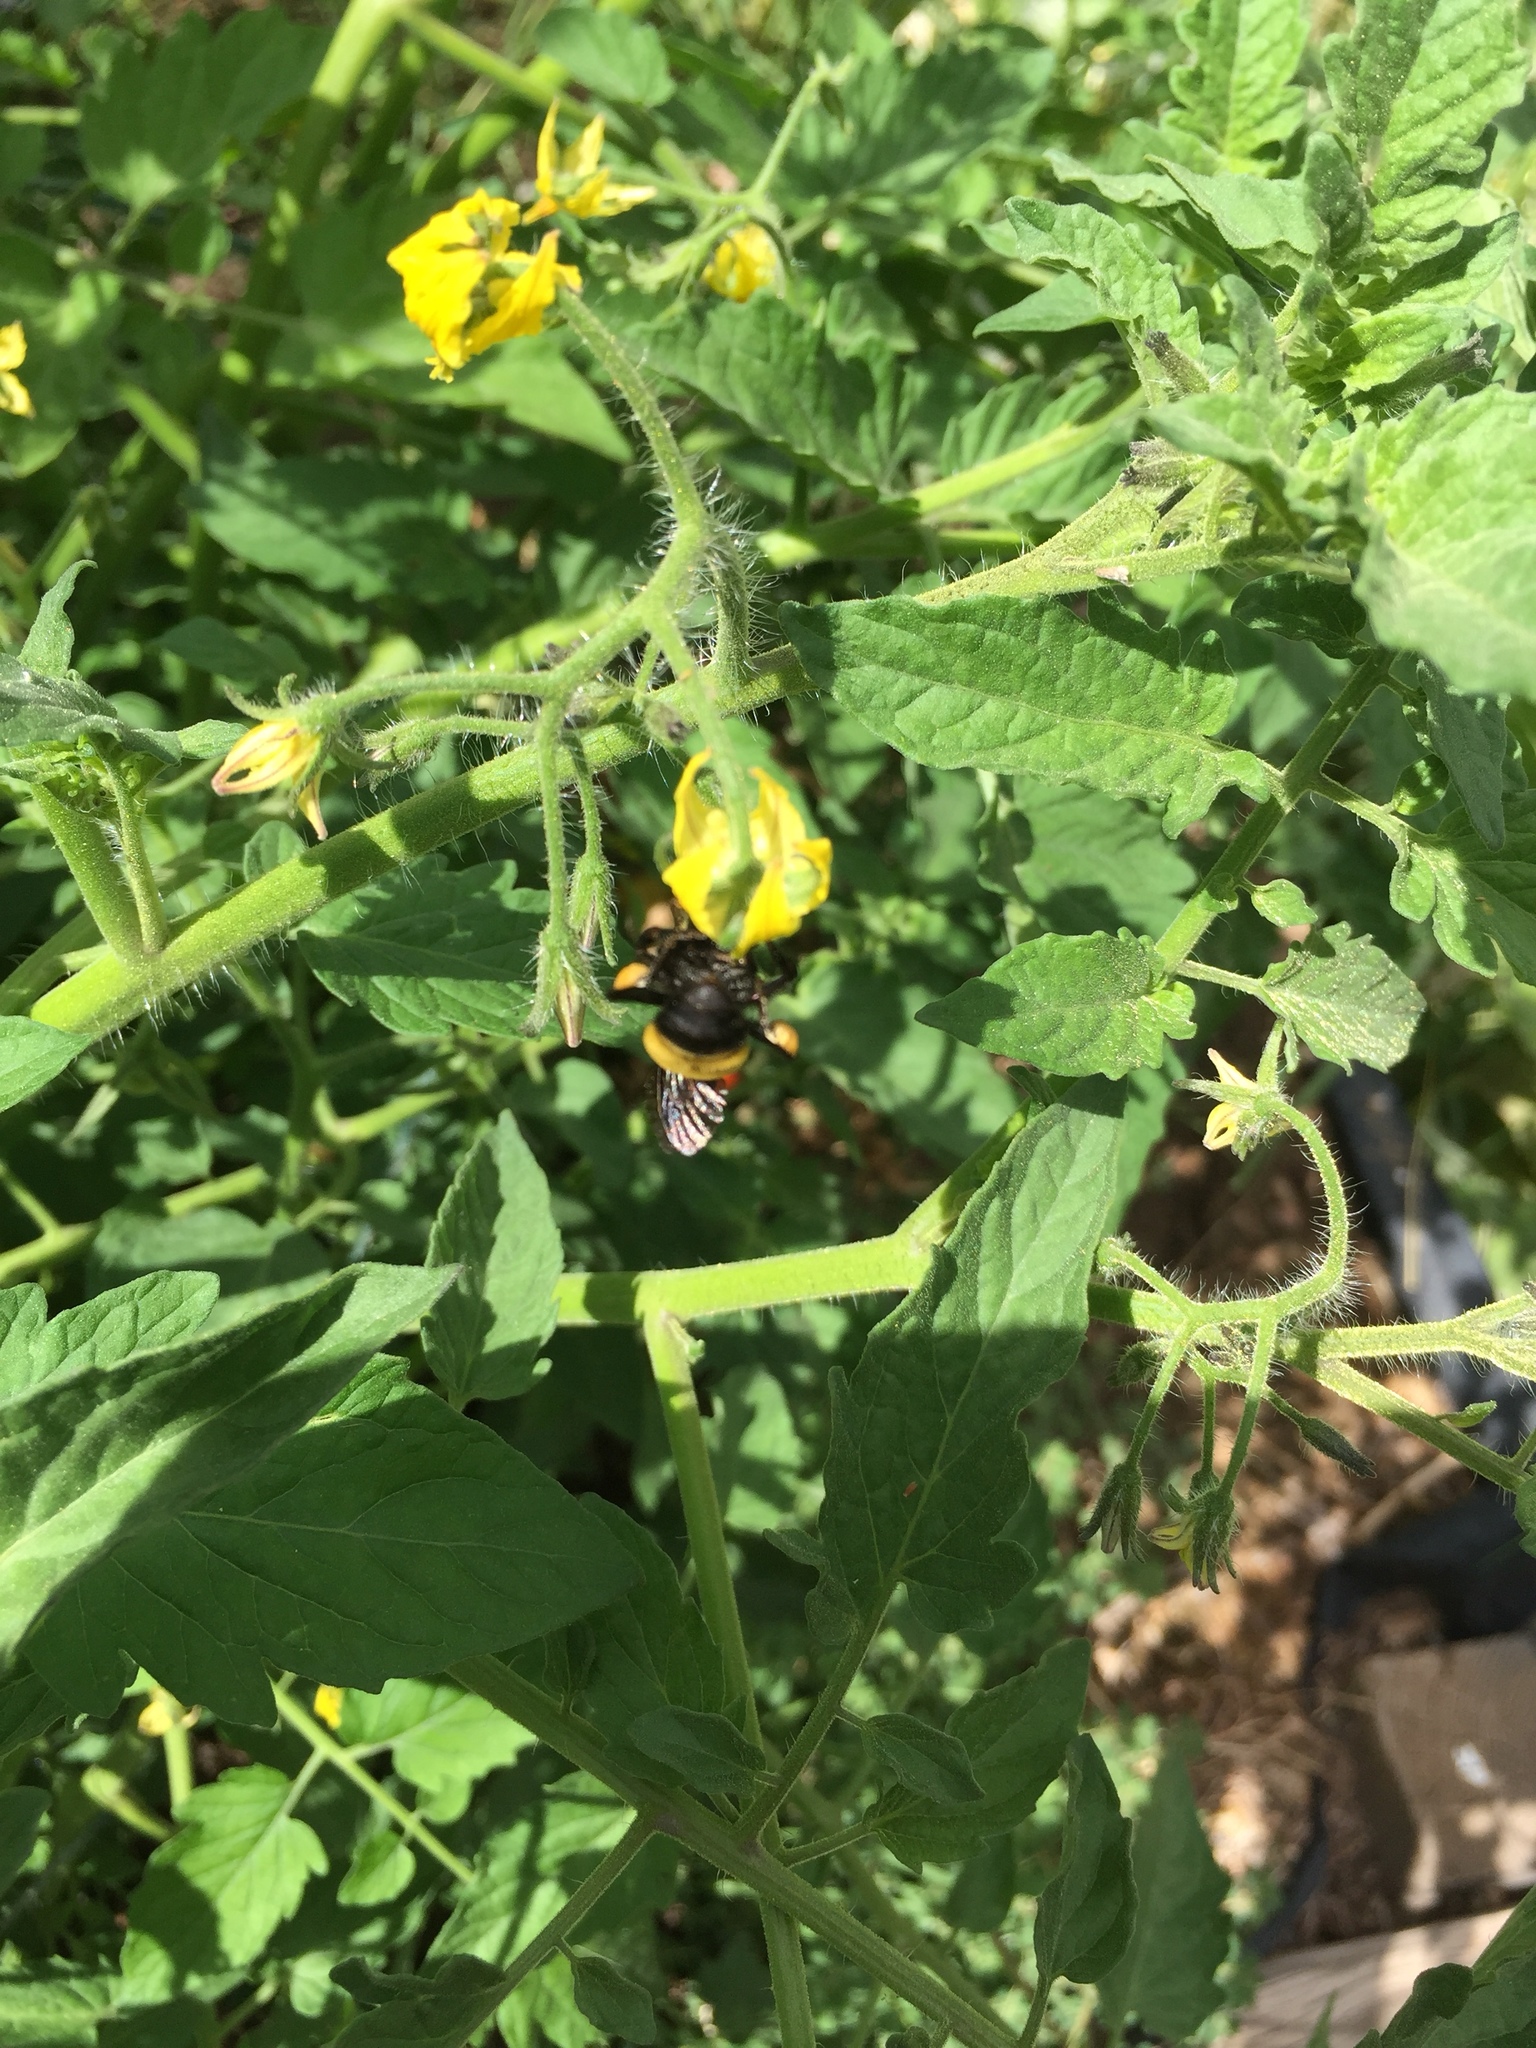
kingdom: Animalia
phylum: Arthropoda
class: Insecta
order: Hymenoptera
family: Apidae
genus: Bombus
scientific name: Bombus pensylvanicus
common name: Bumble bee
